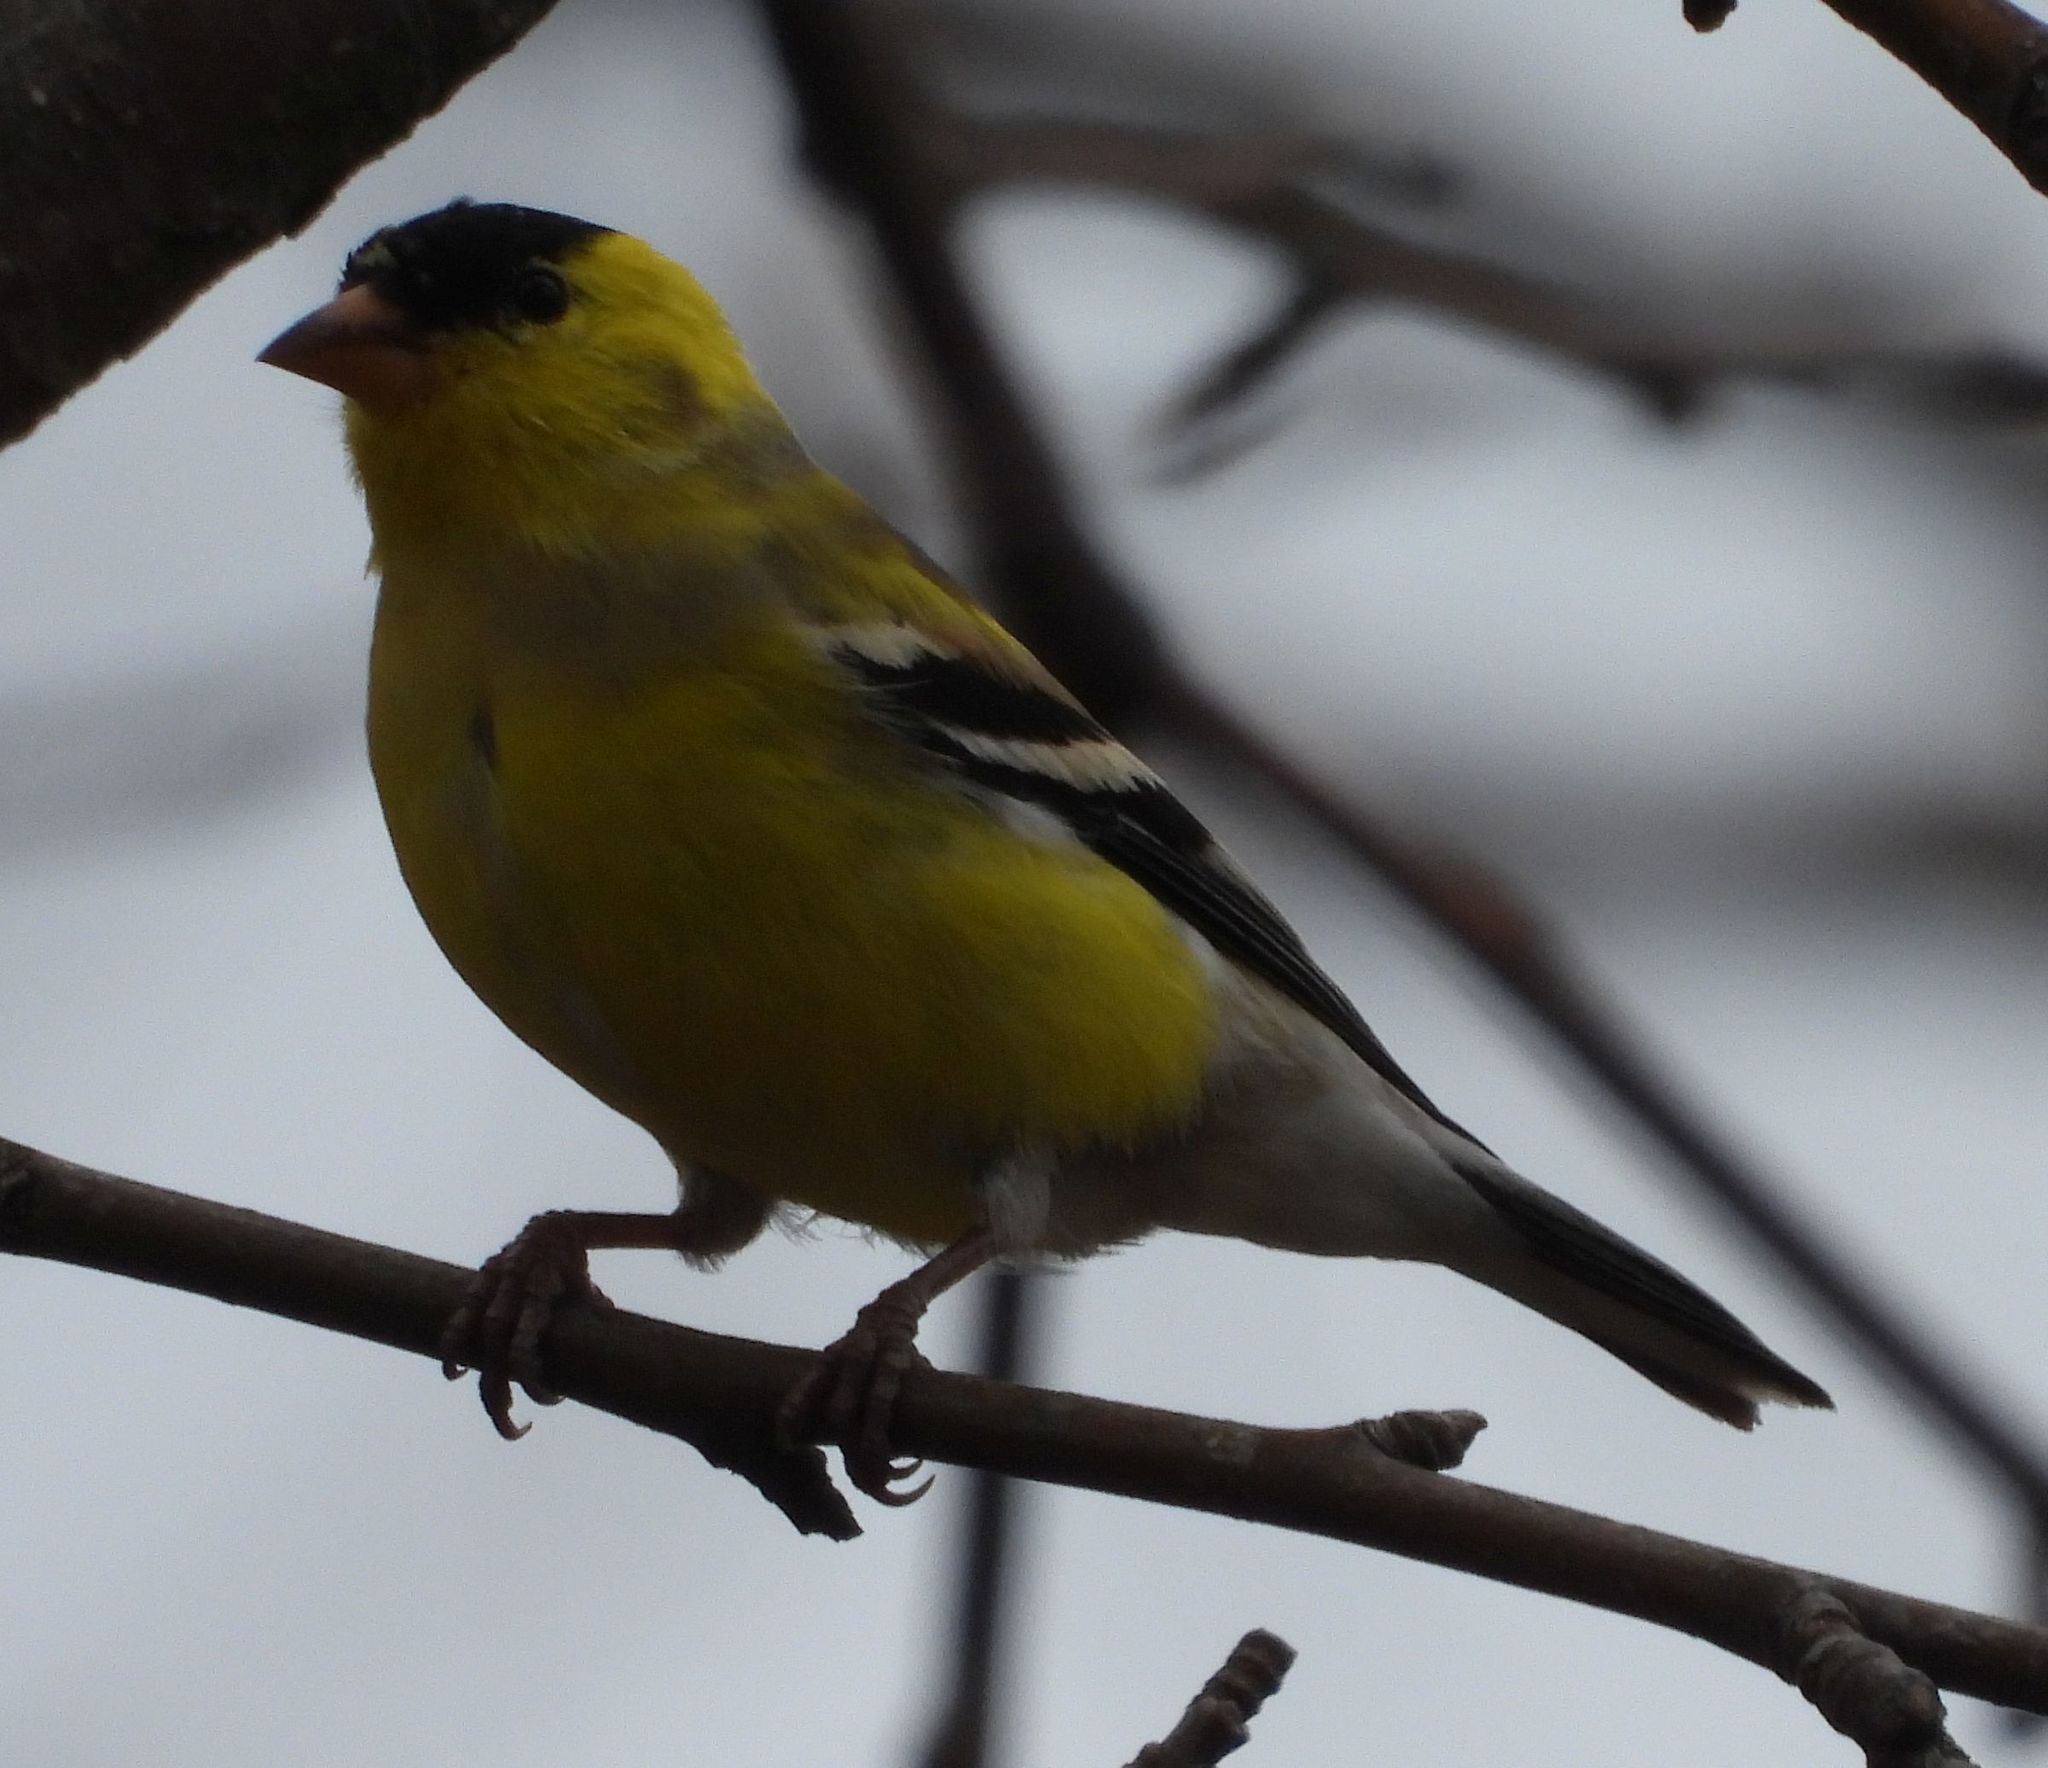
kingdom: Animalia
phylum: Chordata
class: Aves
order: Passeriformes
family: Fringillidae
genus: Spinus
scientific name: Spinus tristis
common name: American goldfinch
